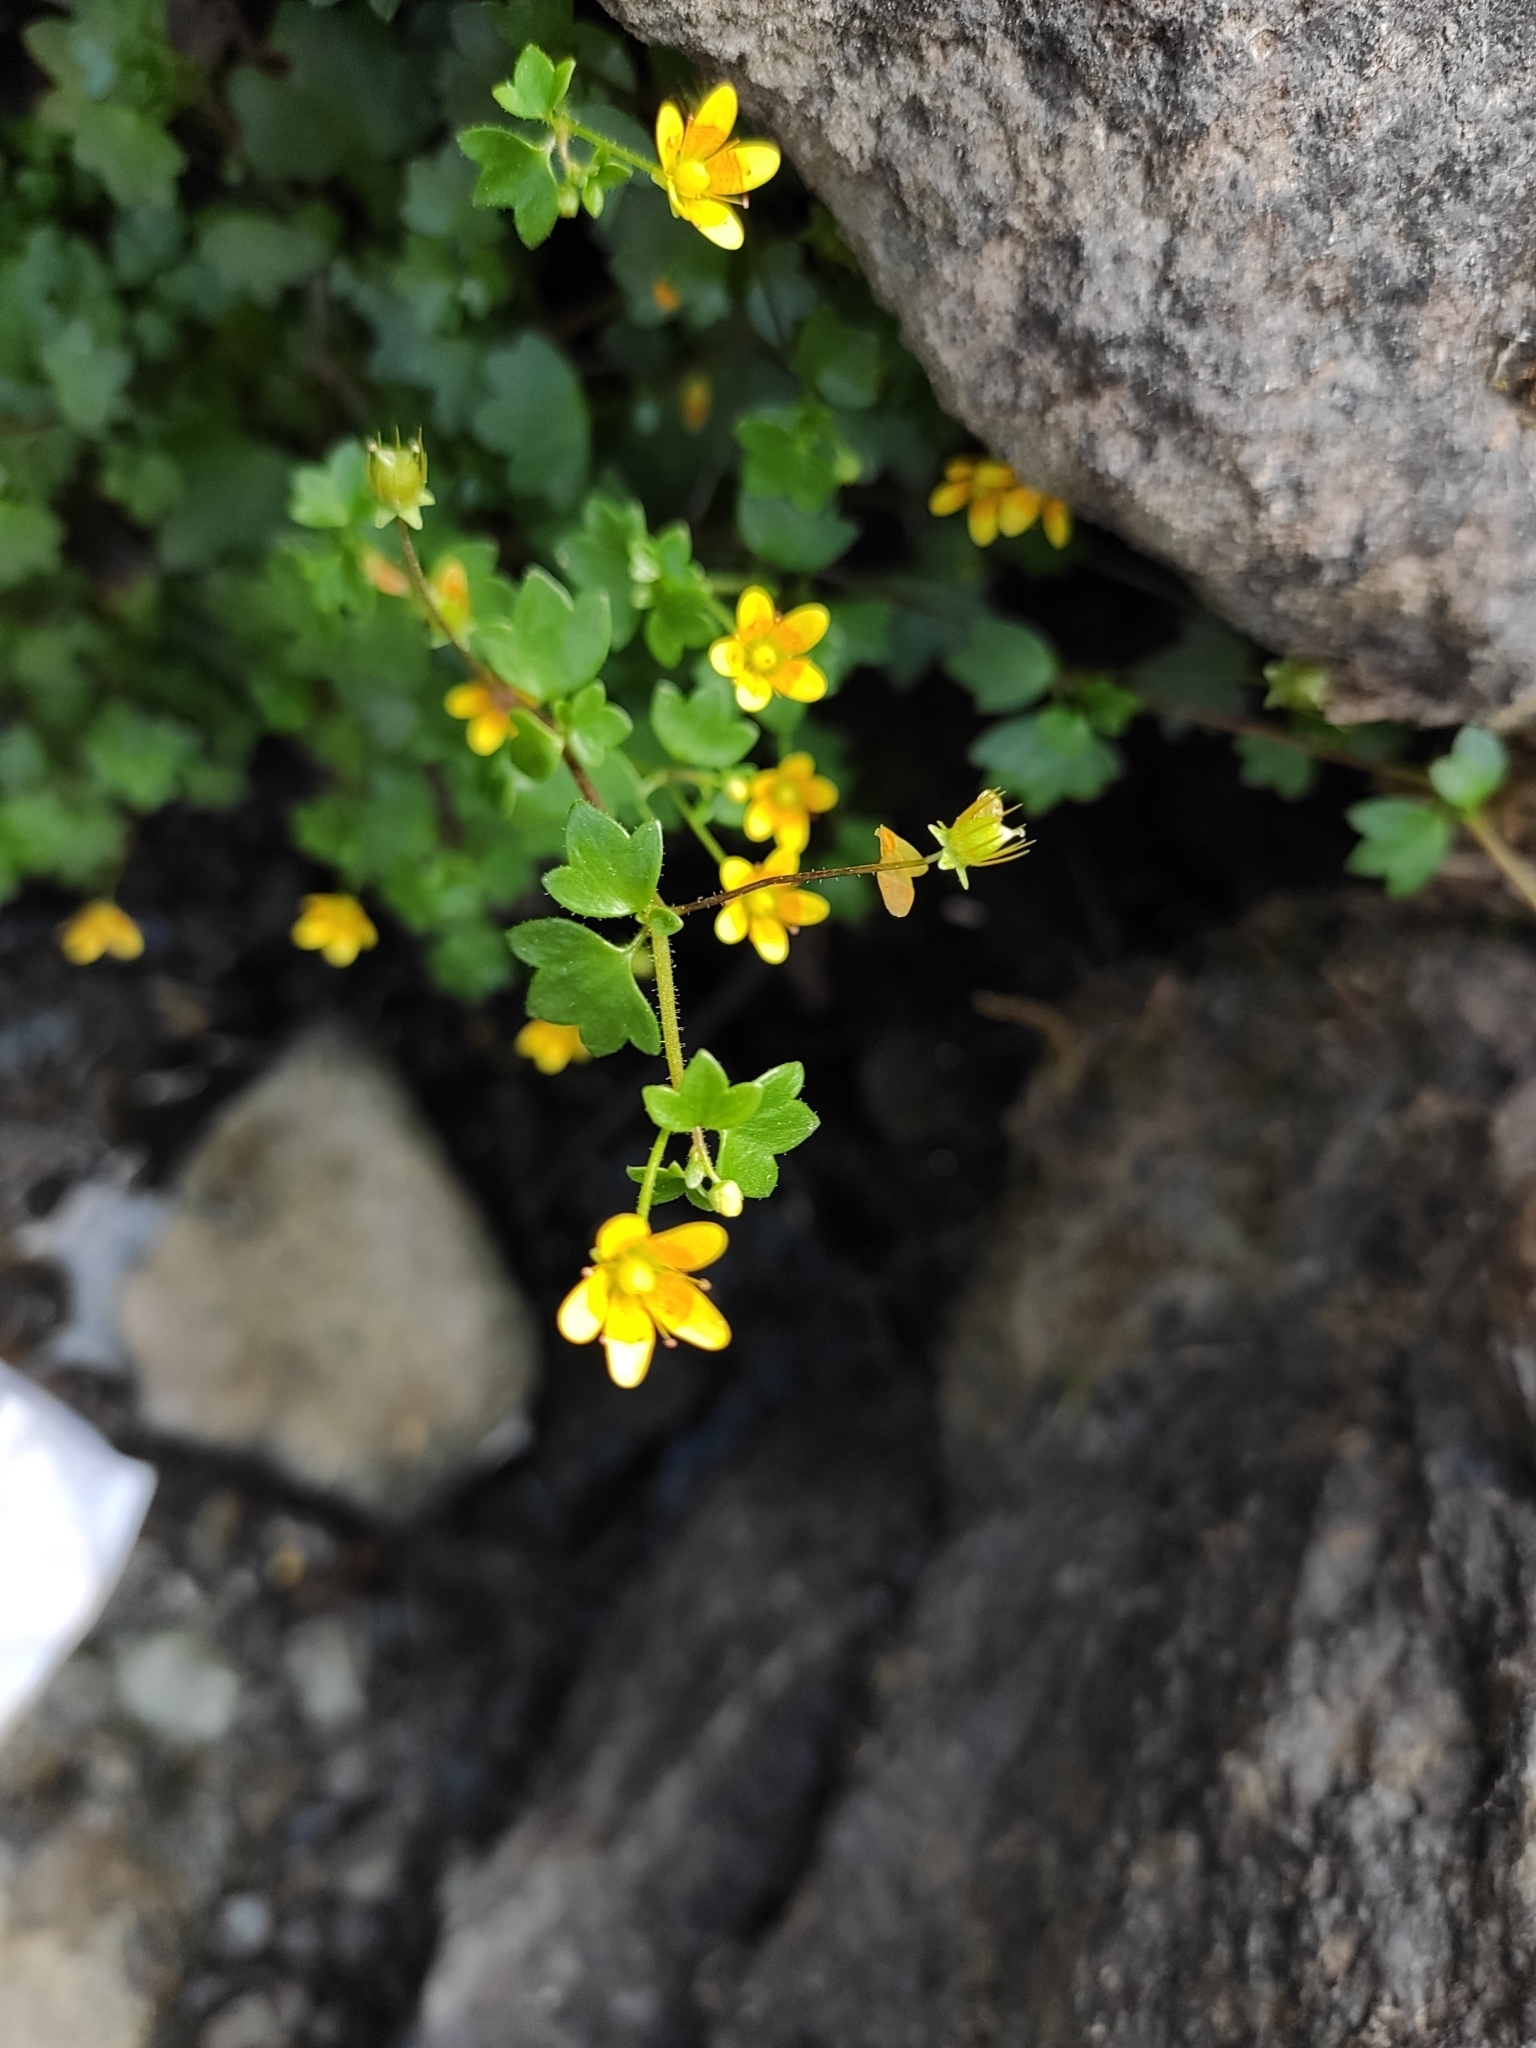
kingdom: Plantae
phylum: Tracheophyta
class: Magnoliopsida
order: Saxifragales
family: Saxifragaceae
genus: Saxifraga
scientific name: Saxifraga cymbalaria
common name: Celandine saxifrage
